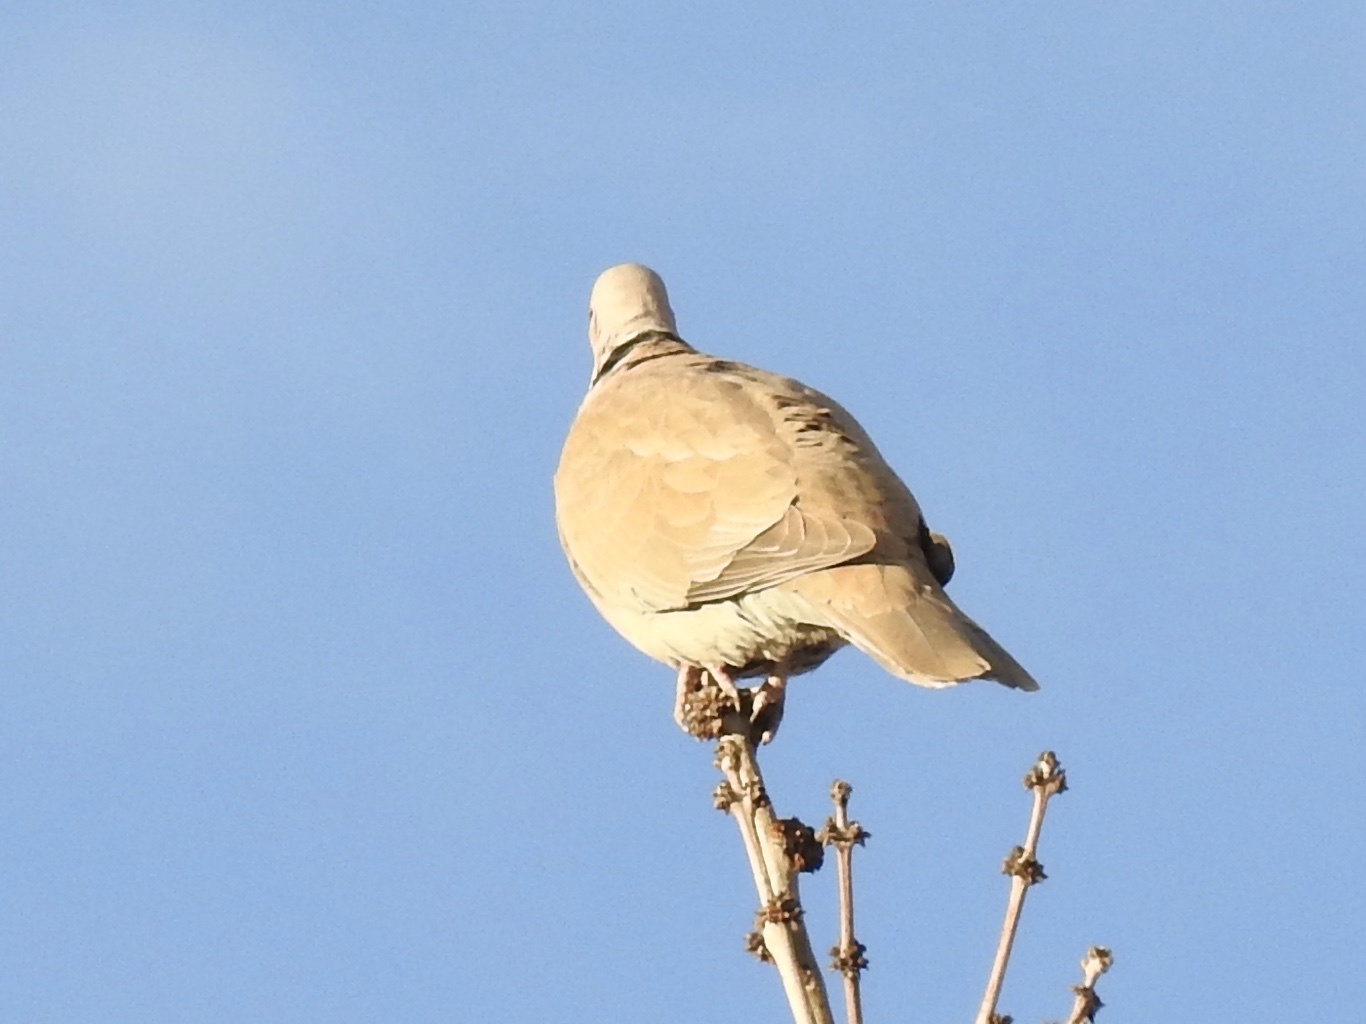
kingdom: Animalia
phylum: Chordata
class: Aves
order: Columbiformes
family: Columbidae
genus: Streptopelia
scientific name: Streptopelia decaocto
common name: Eurasian collared dove
